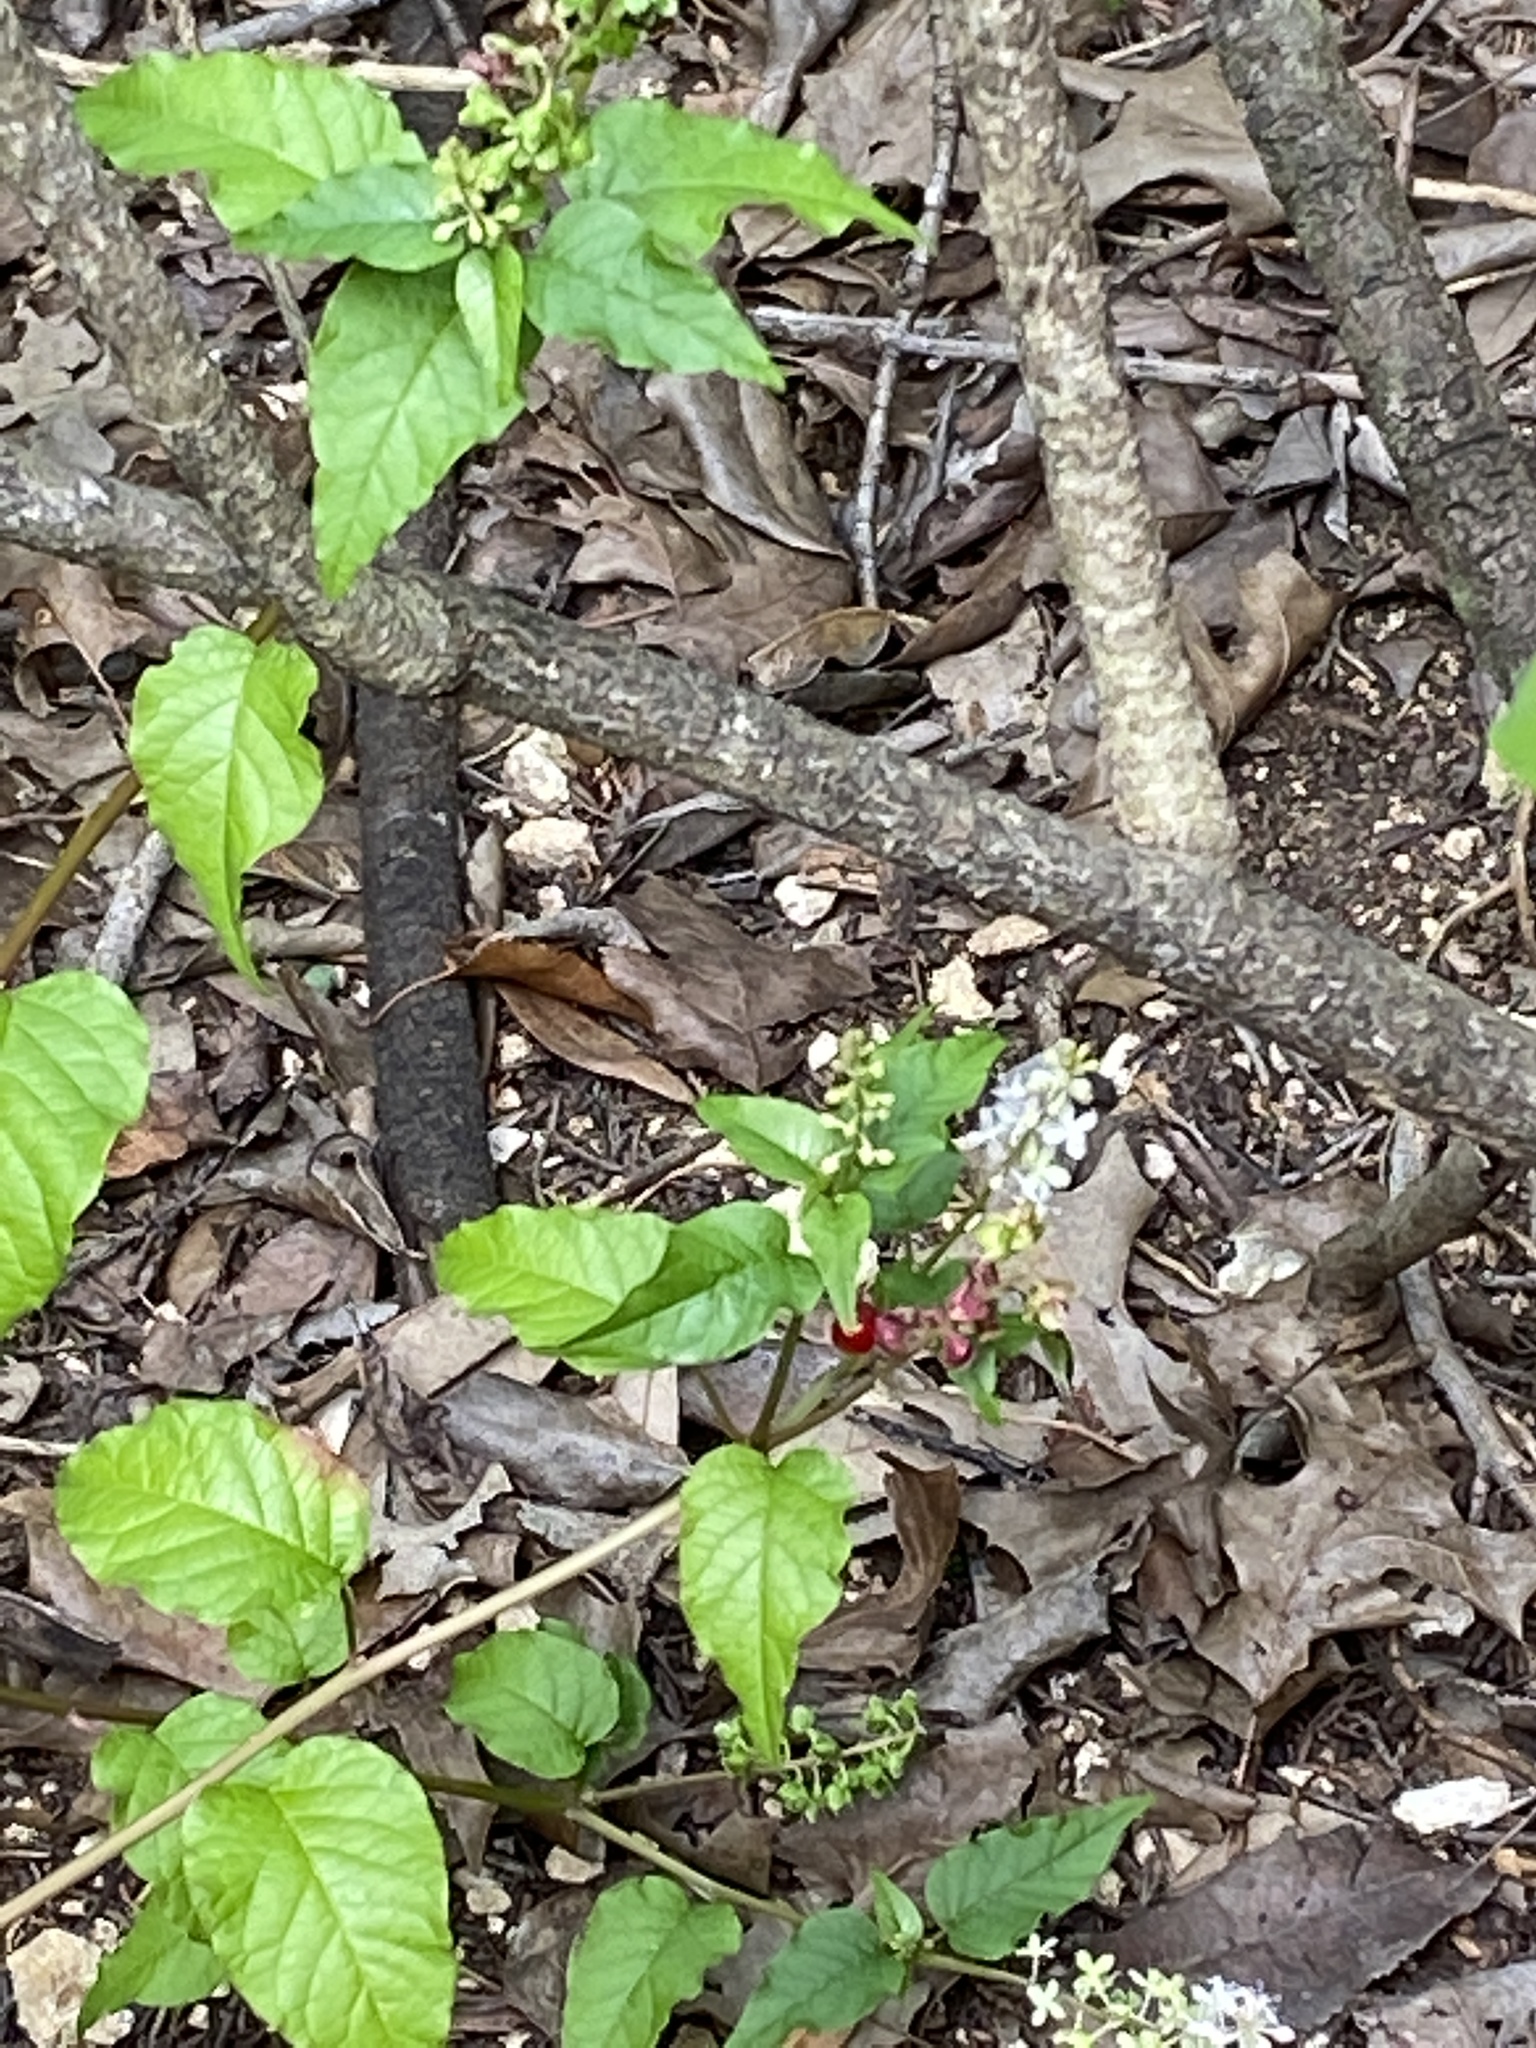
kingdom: Plantae
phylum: Tracheophyta
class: Magnoliopsida
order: Caryophyllales
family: Phytolaccaceae
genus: Rivina
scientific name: Rivina humilis
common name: Rougeplant
